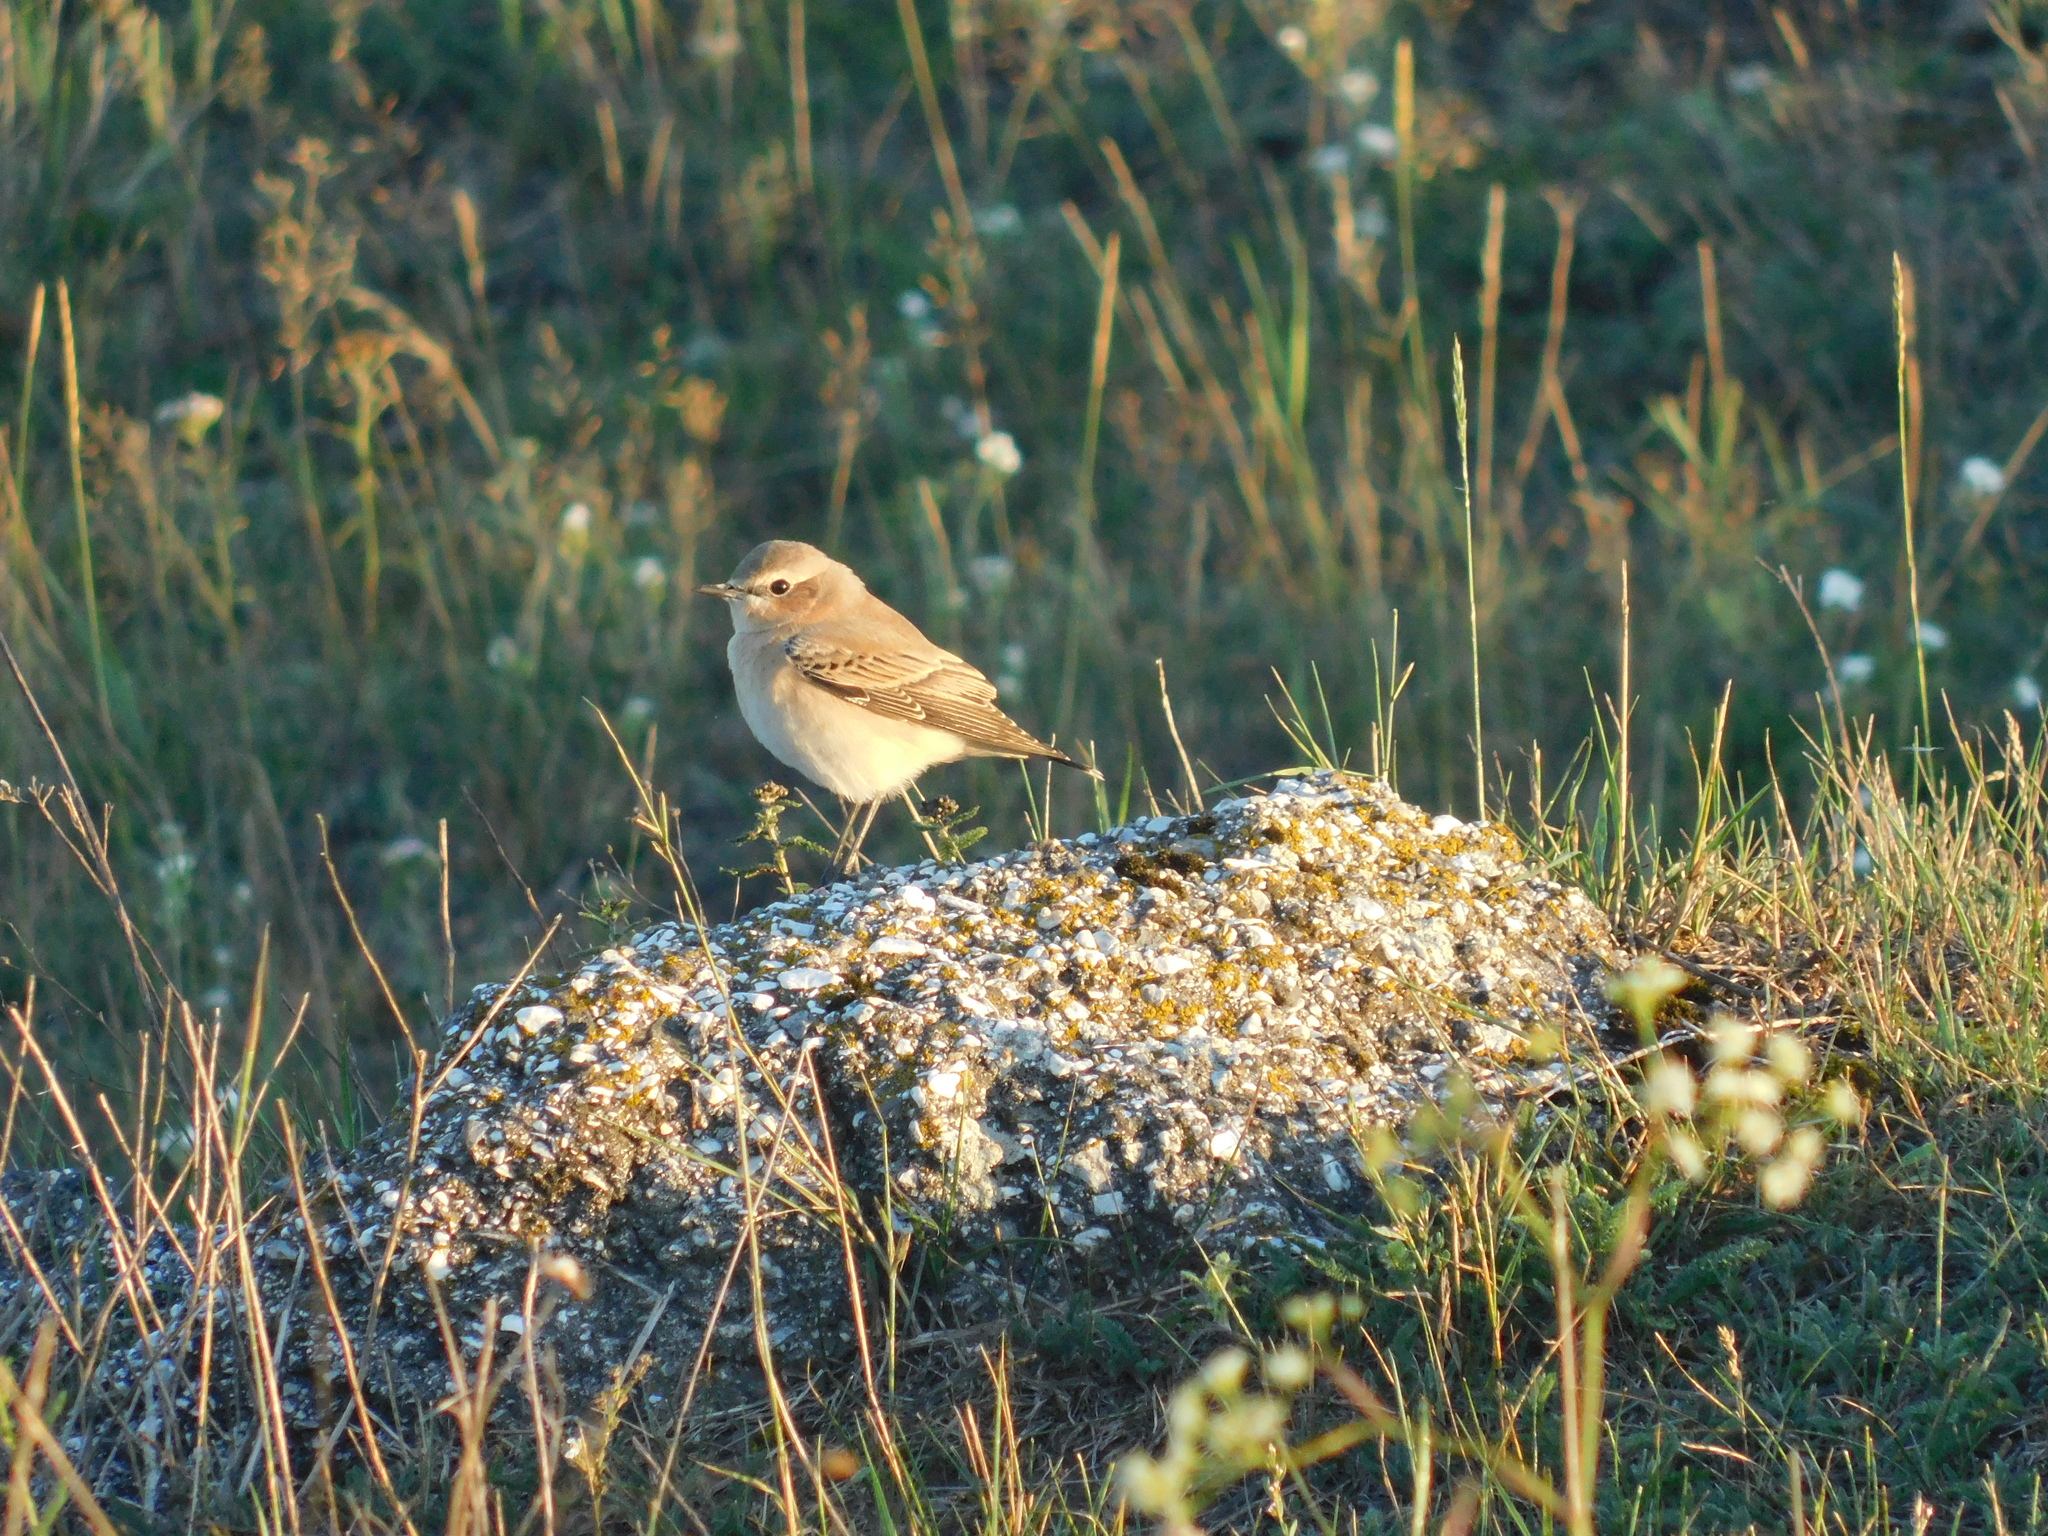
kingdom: Animalia
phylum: Chordata
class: Aves
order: Passeriformes
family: Muscicapidae
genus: Oenanthe
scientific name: Oenanthe oenanthe
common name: Northern wheatear
